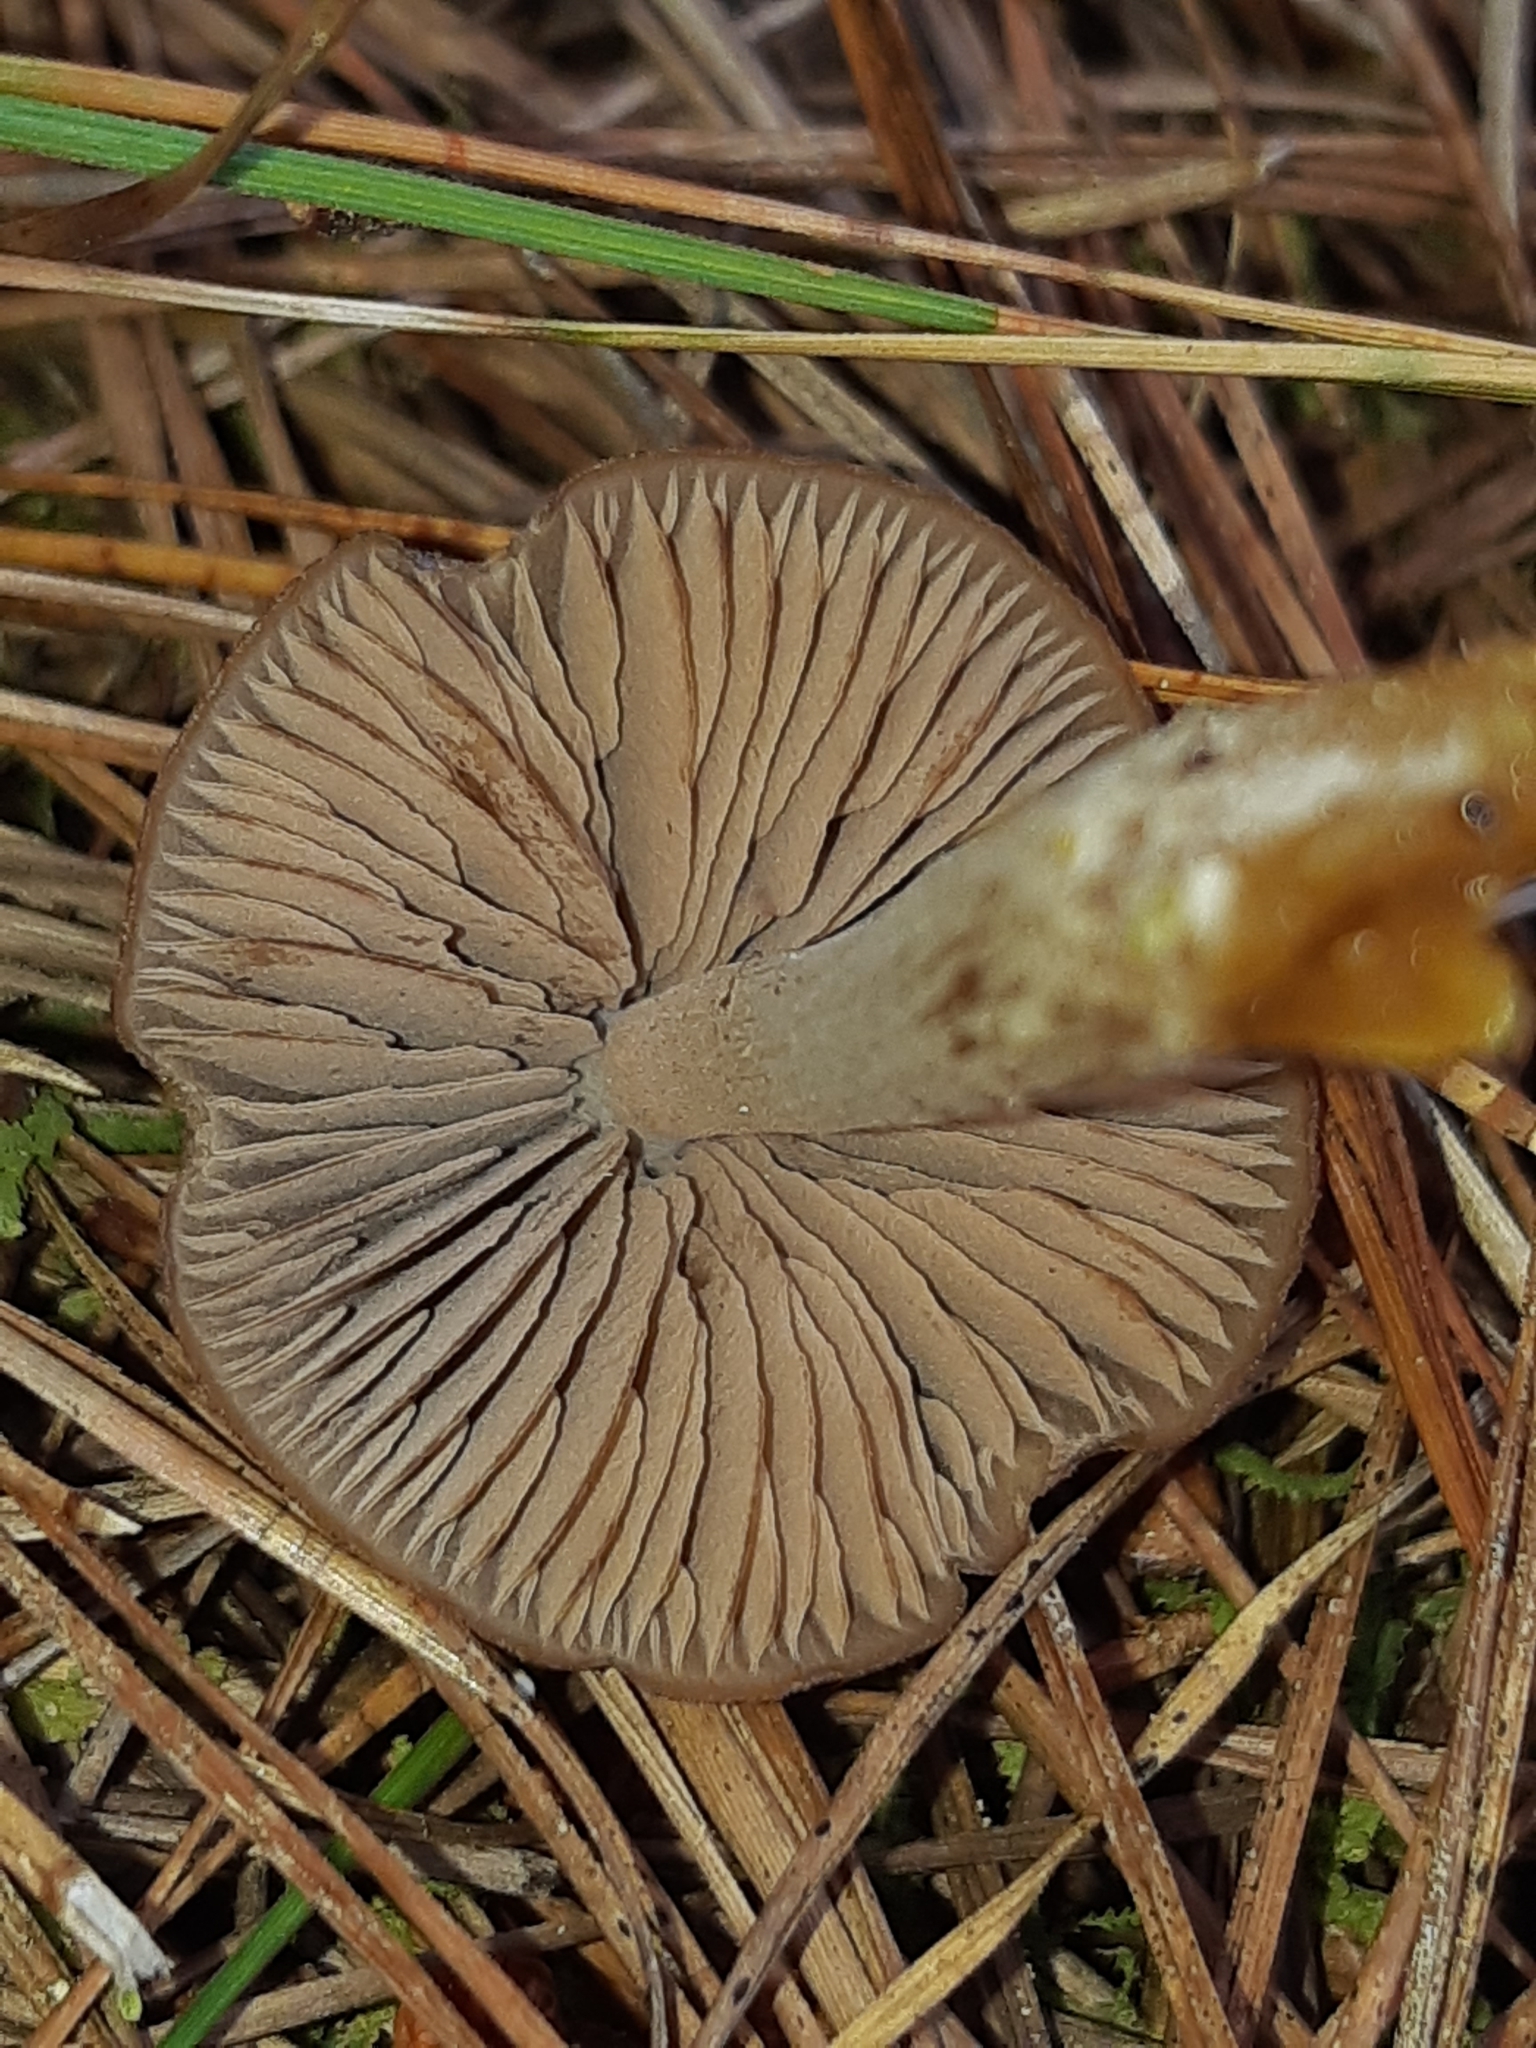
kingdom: Fungi
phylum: Basidiomycota
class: Agaricomycetes
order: Agaricales
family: Entolomataceae
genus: Entoloma
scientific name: Entoloma cuneatum
